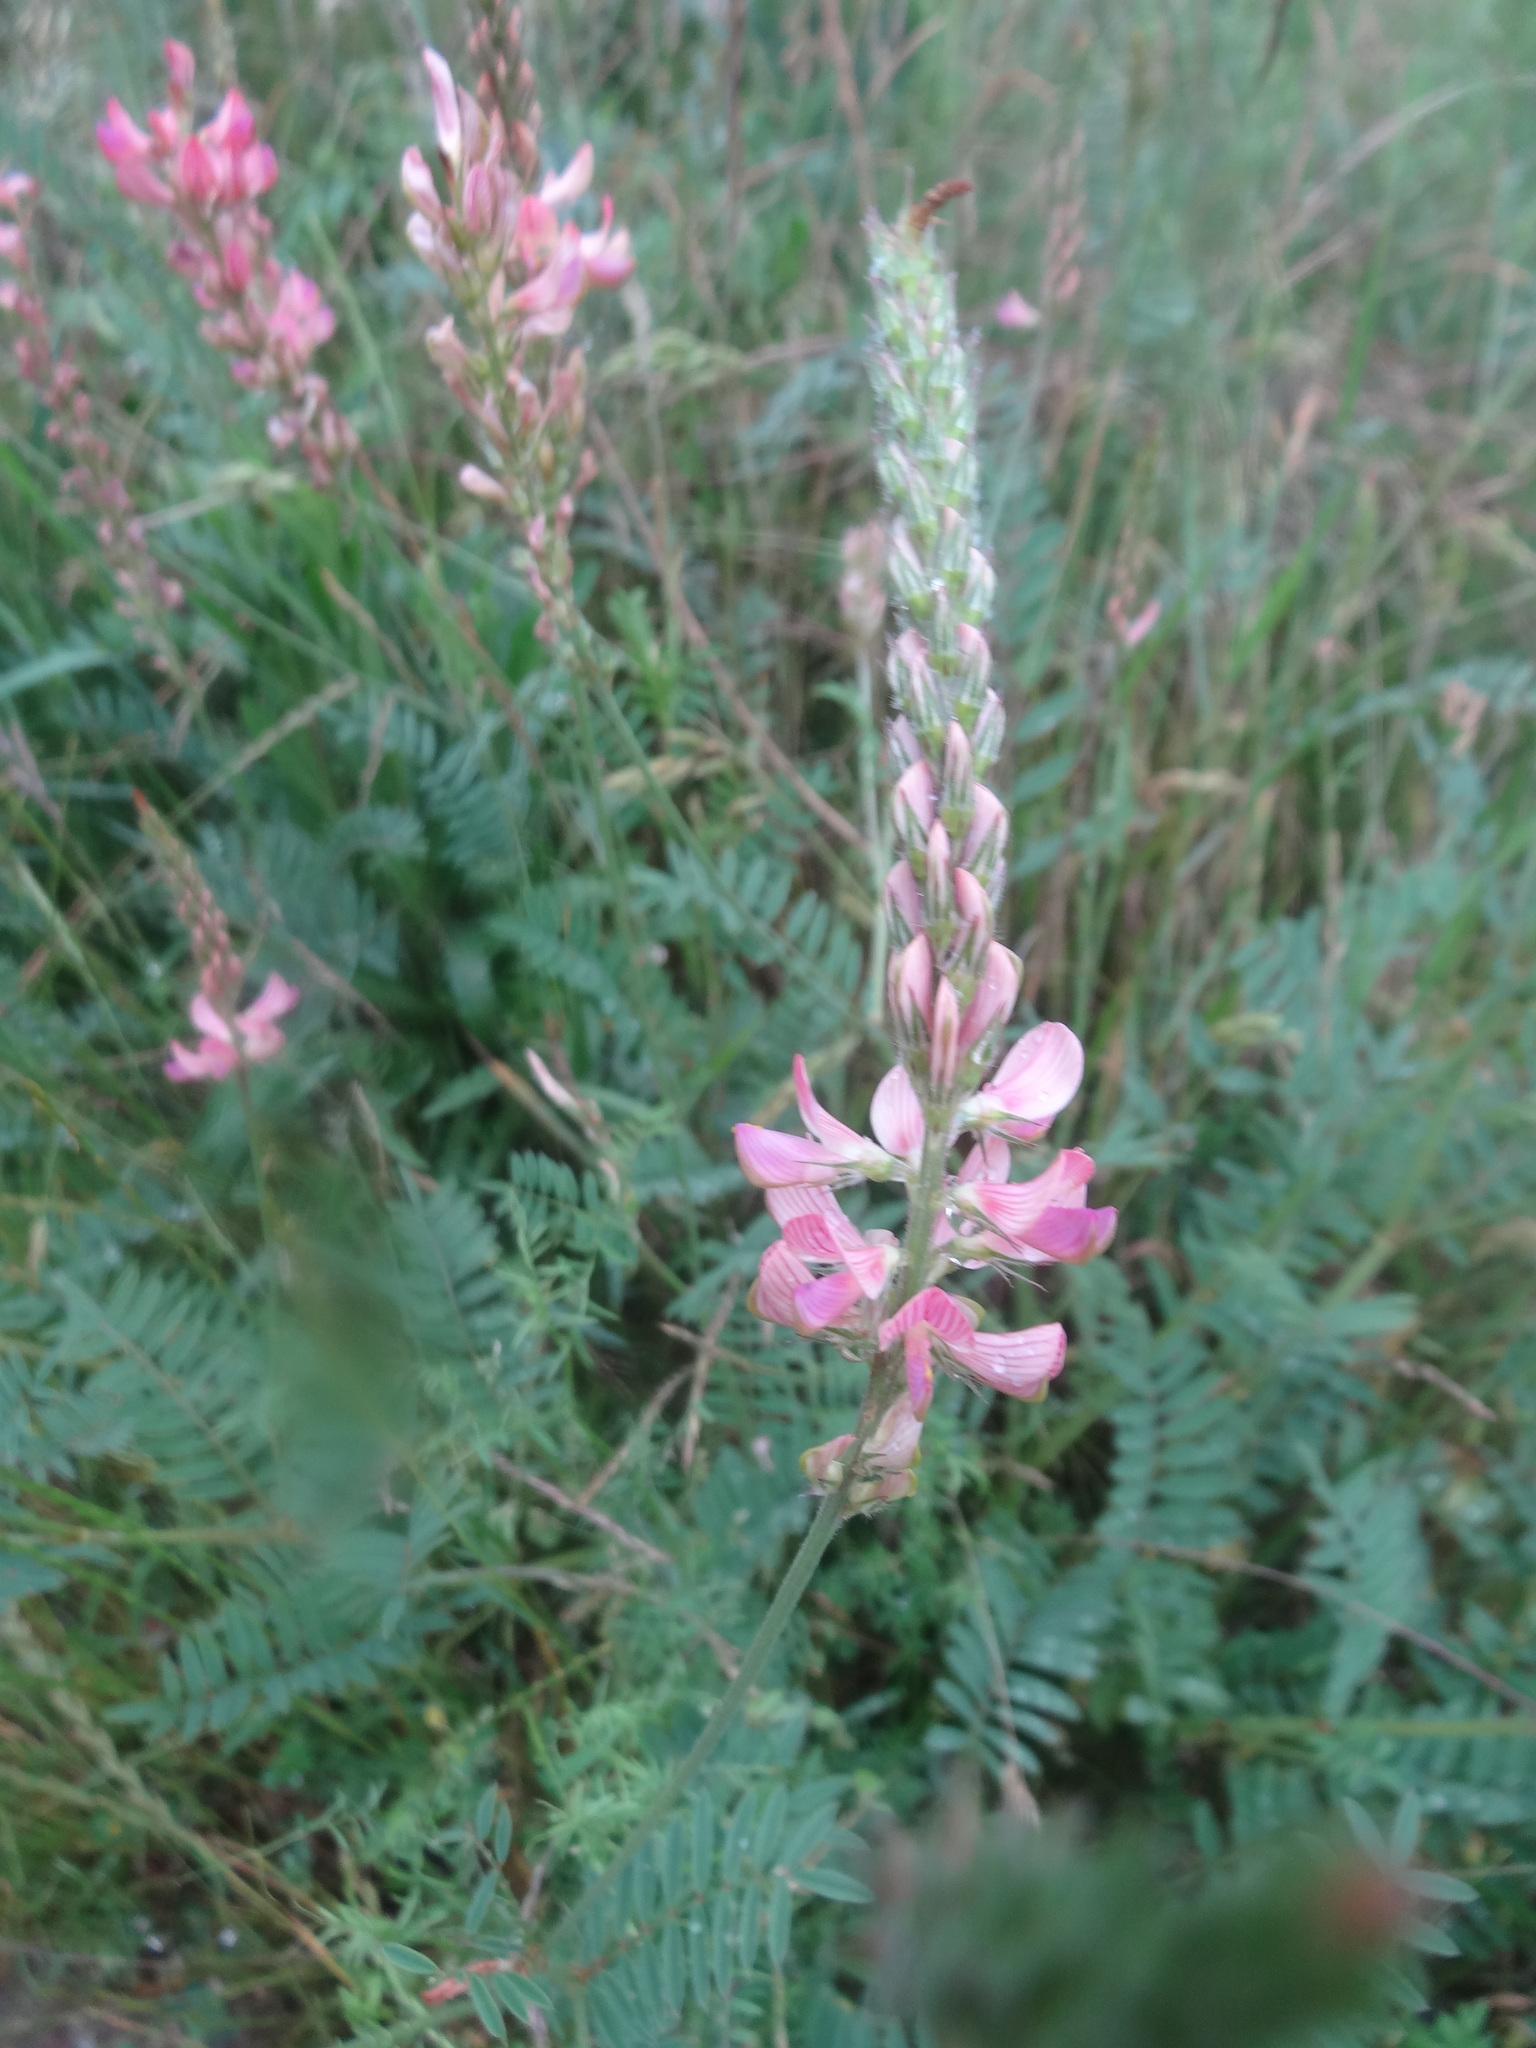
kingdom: Plantae
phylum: Tracheophyta
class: Magnoliopsida
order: Fabales
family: Fabaceae
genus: Onobrychis
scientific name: Onobrychis viciifolia
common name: Sainfoin
